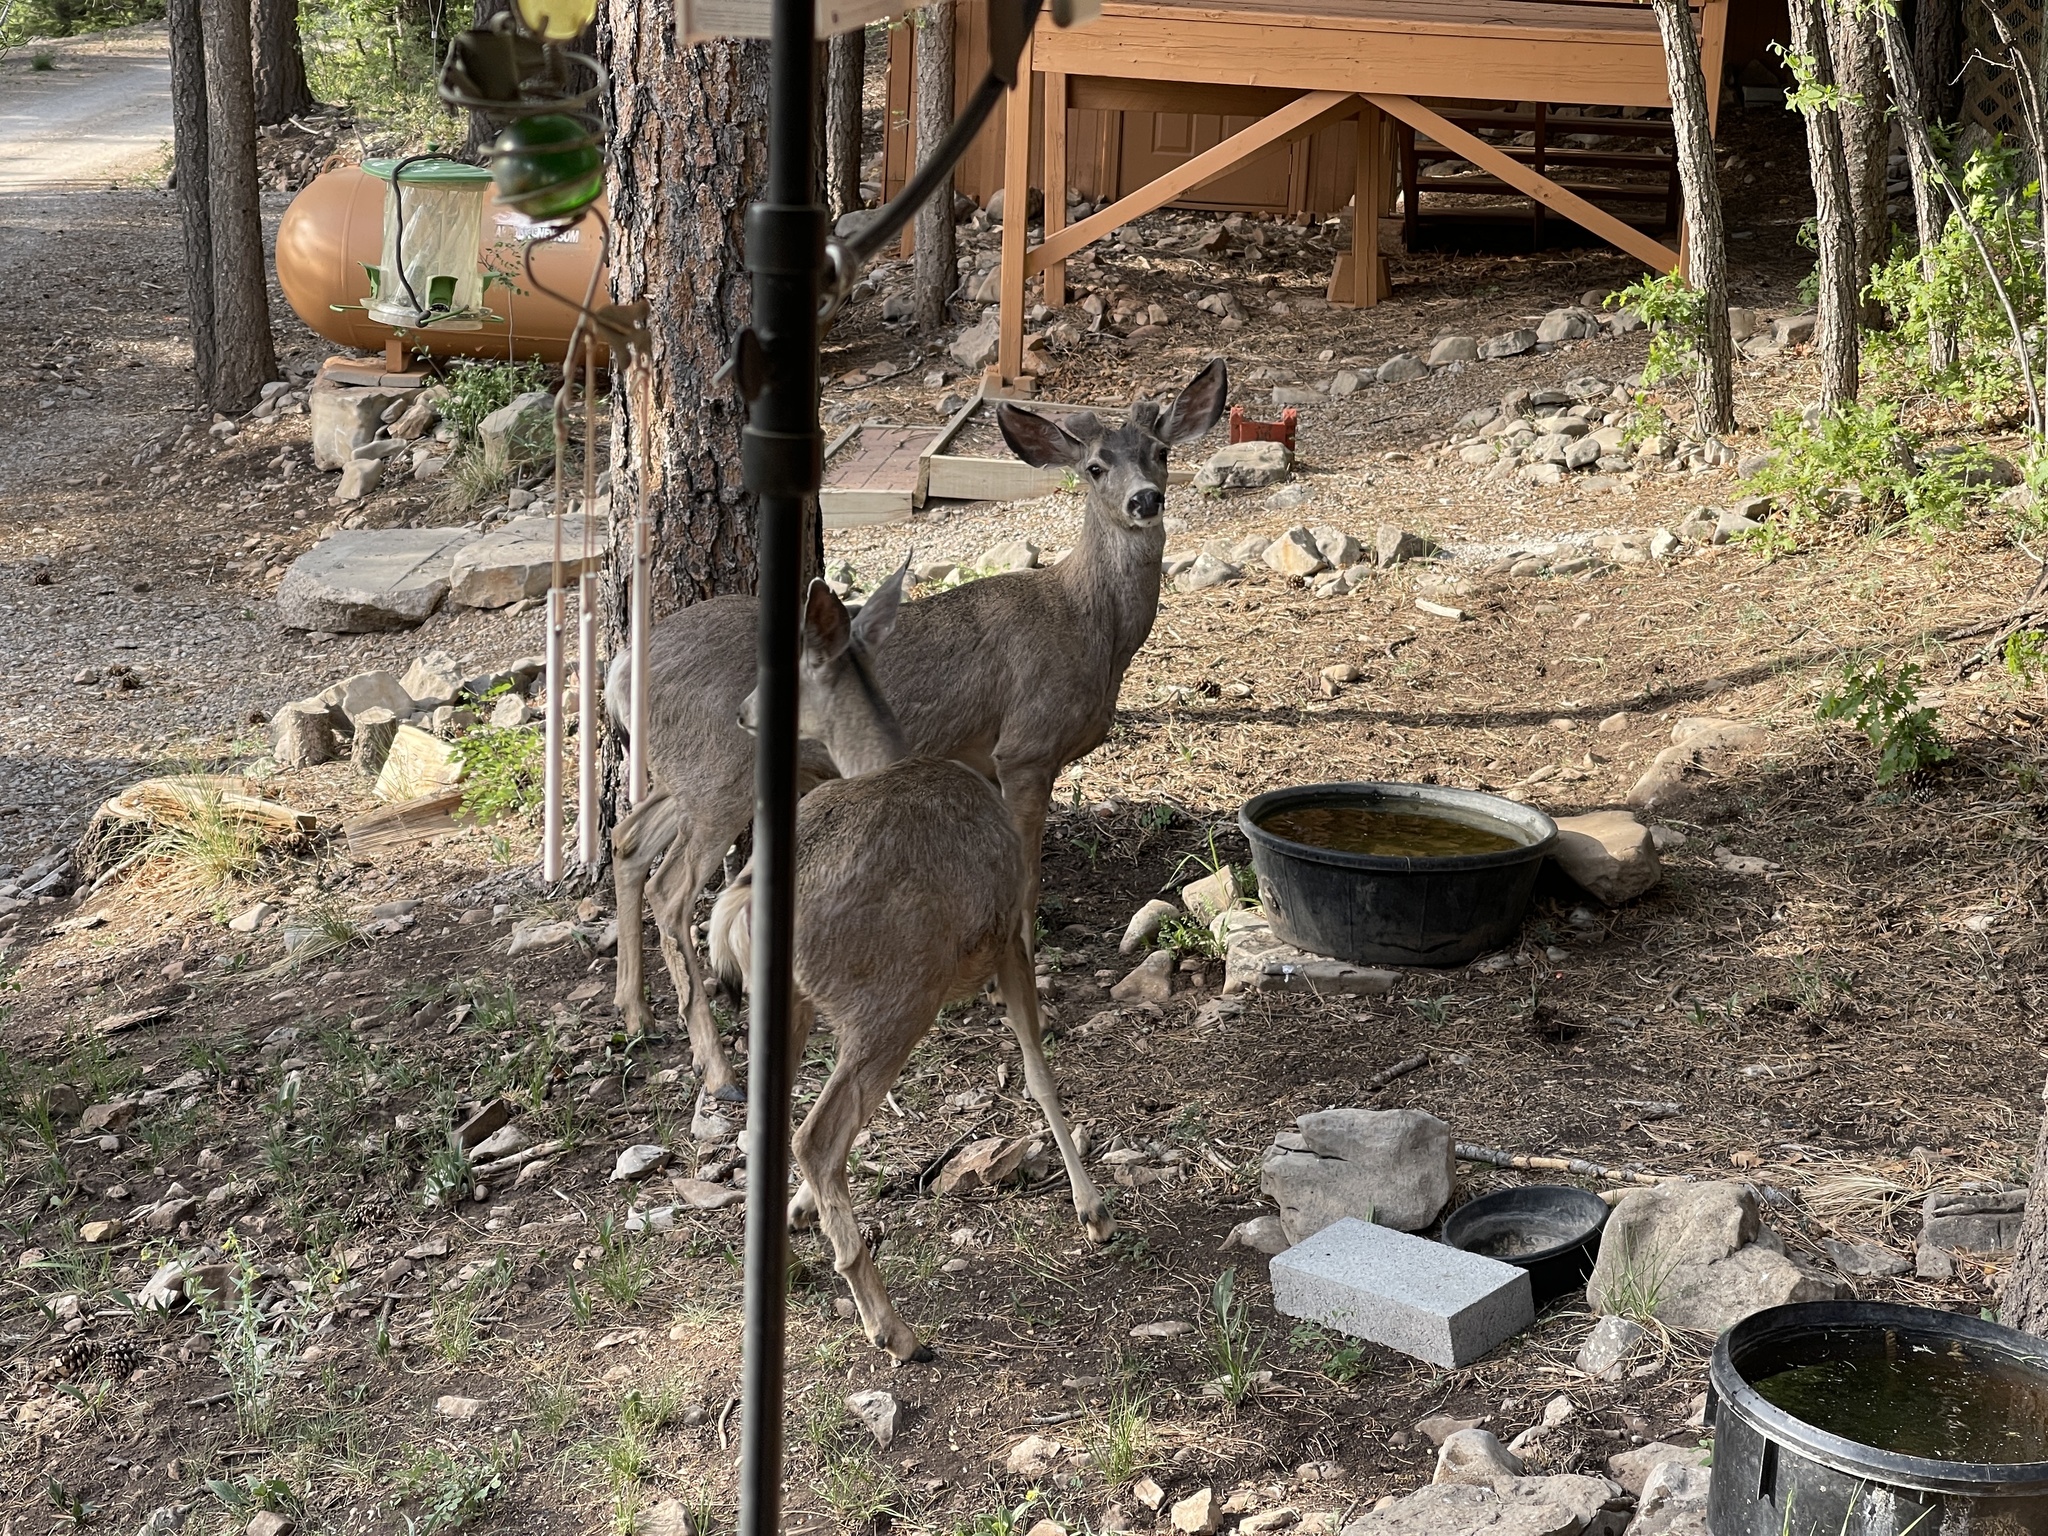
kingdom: Animalia
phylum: Chordata
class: Mammalia
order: Artiodactyla
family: Cervidae
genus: Odocoileus
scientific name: Odocoileus hemionus
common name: Mule deer
